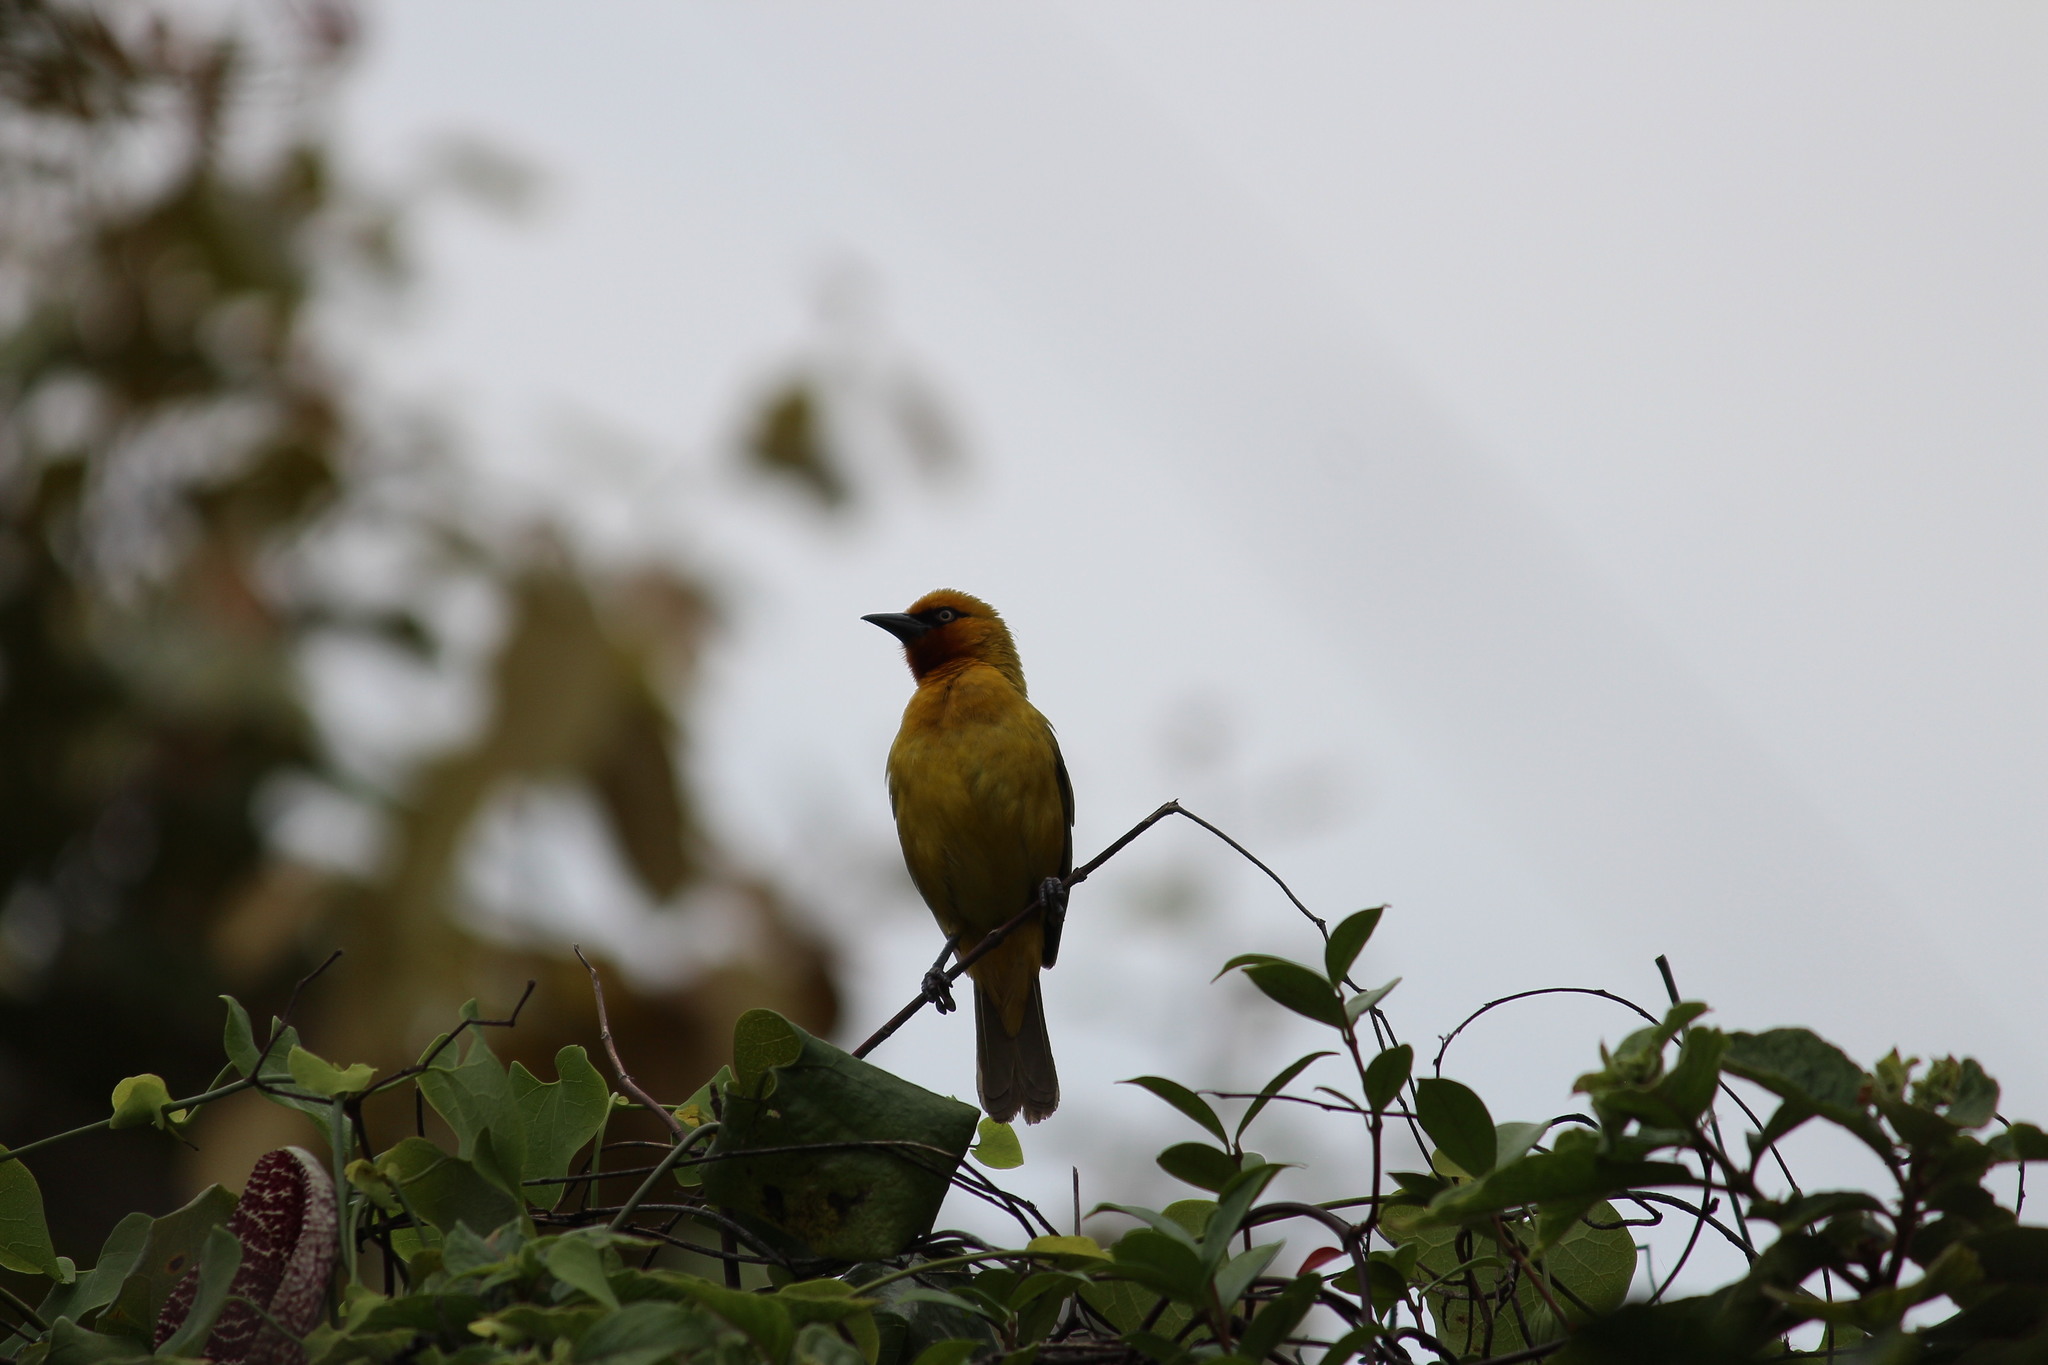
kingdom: Animalia
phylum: Chordata
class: Aves
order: Passeriformes
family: Ploceidae
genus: Ploceus
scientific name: Ploceus ocularis
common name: Spectacled weaver
